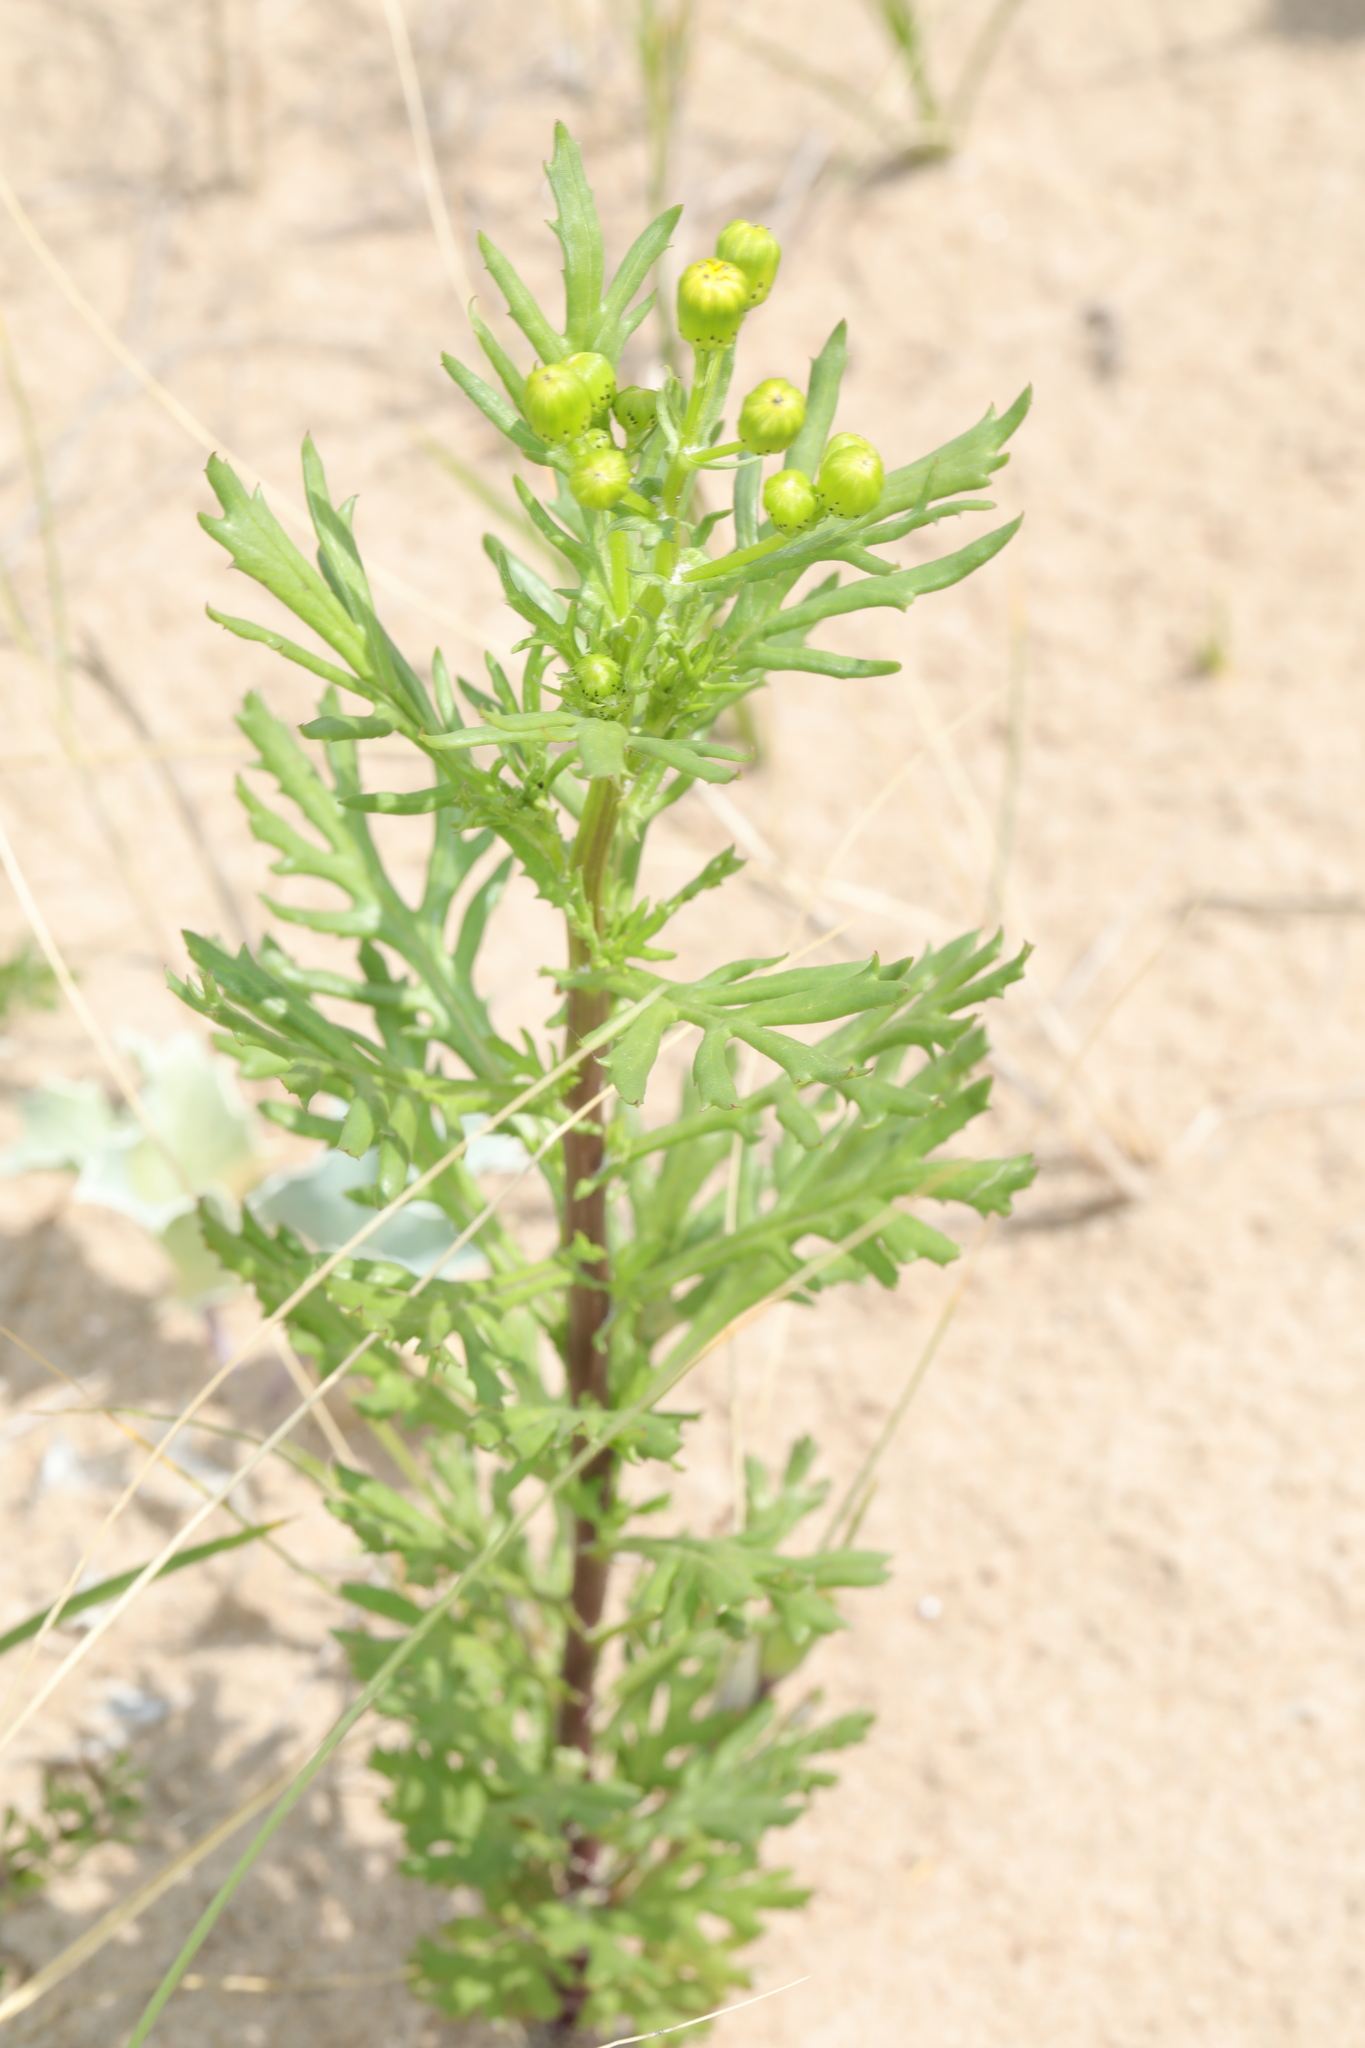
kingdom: Plantae
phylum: Tracheophyta
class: Magnoliopsida
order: Asterales
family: Asteraceae
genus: Senecio
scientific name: Senecio squalidus
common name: Oxford ragwort
